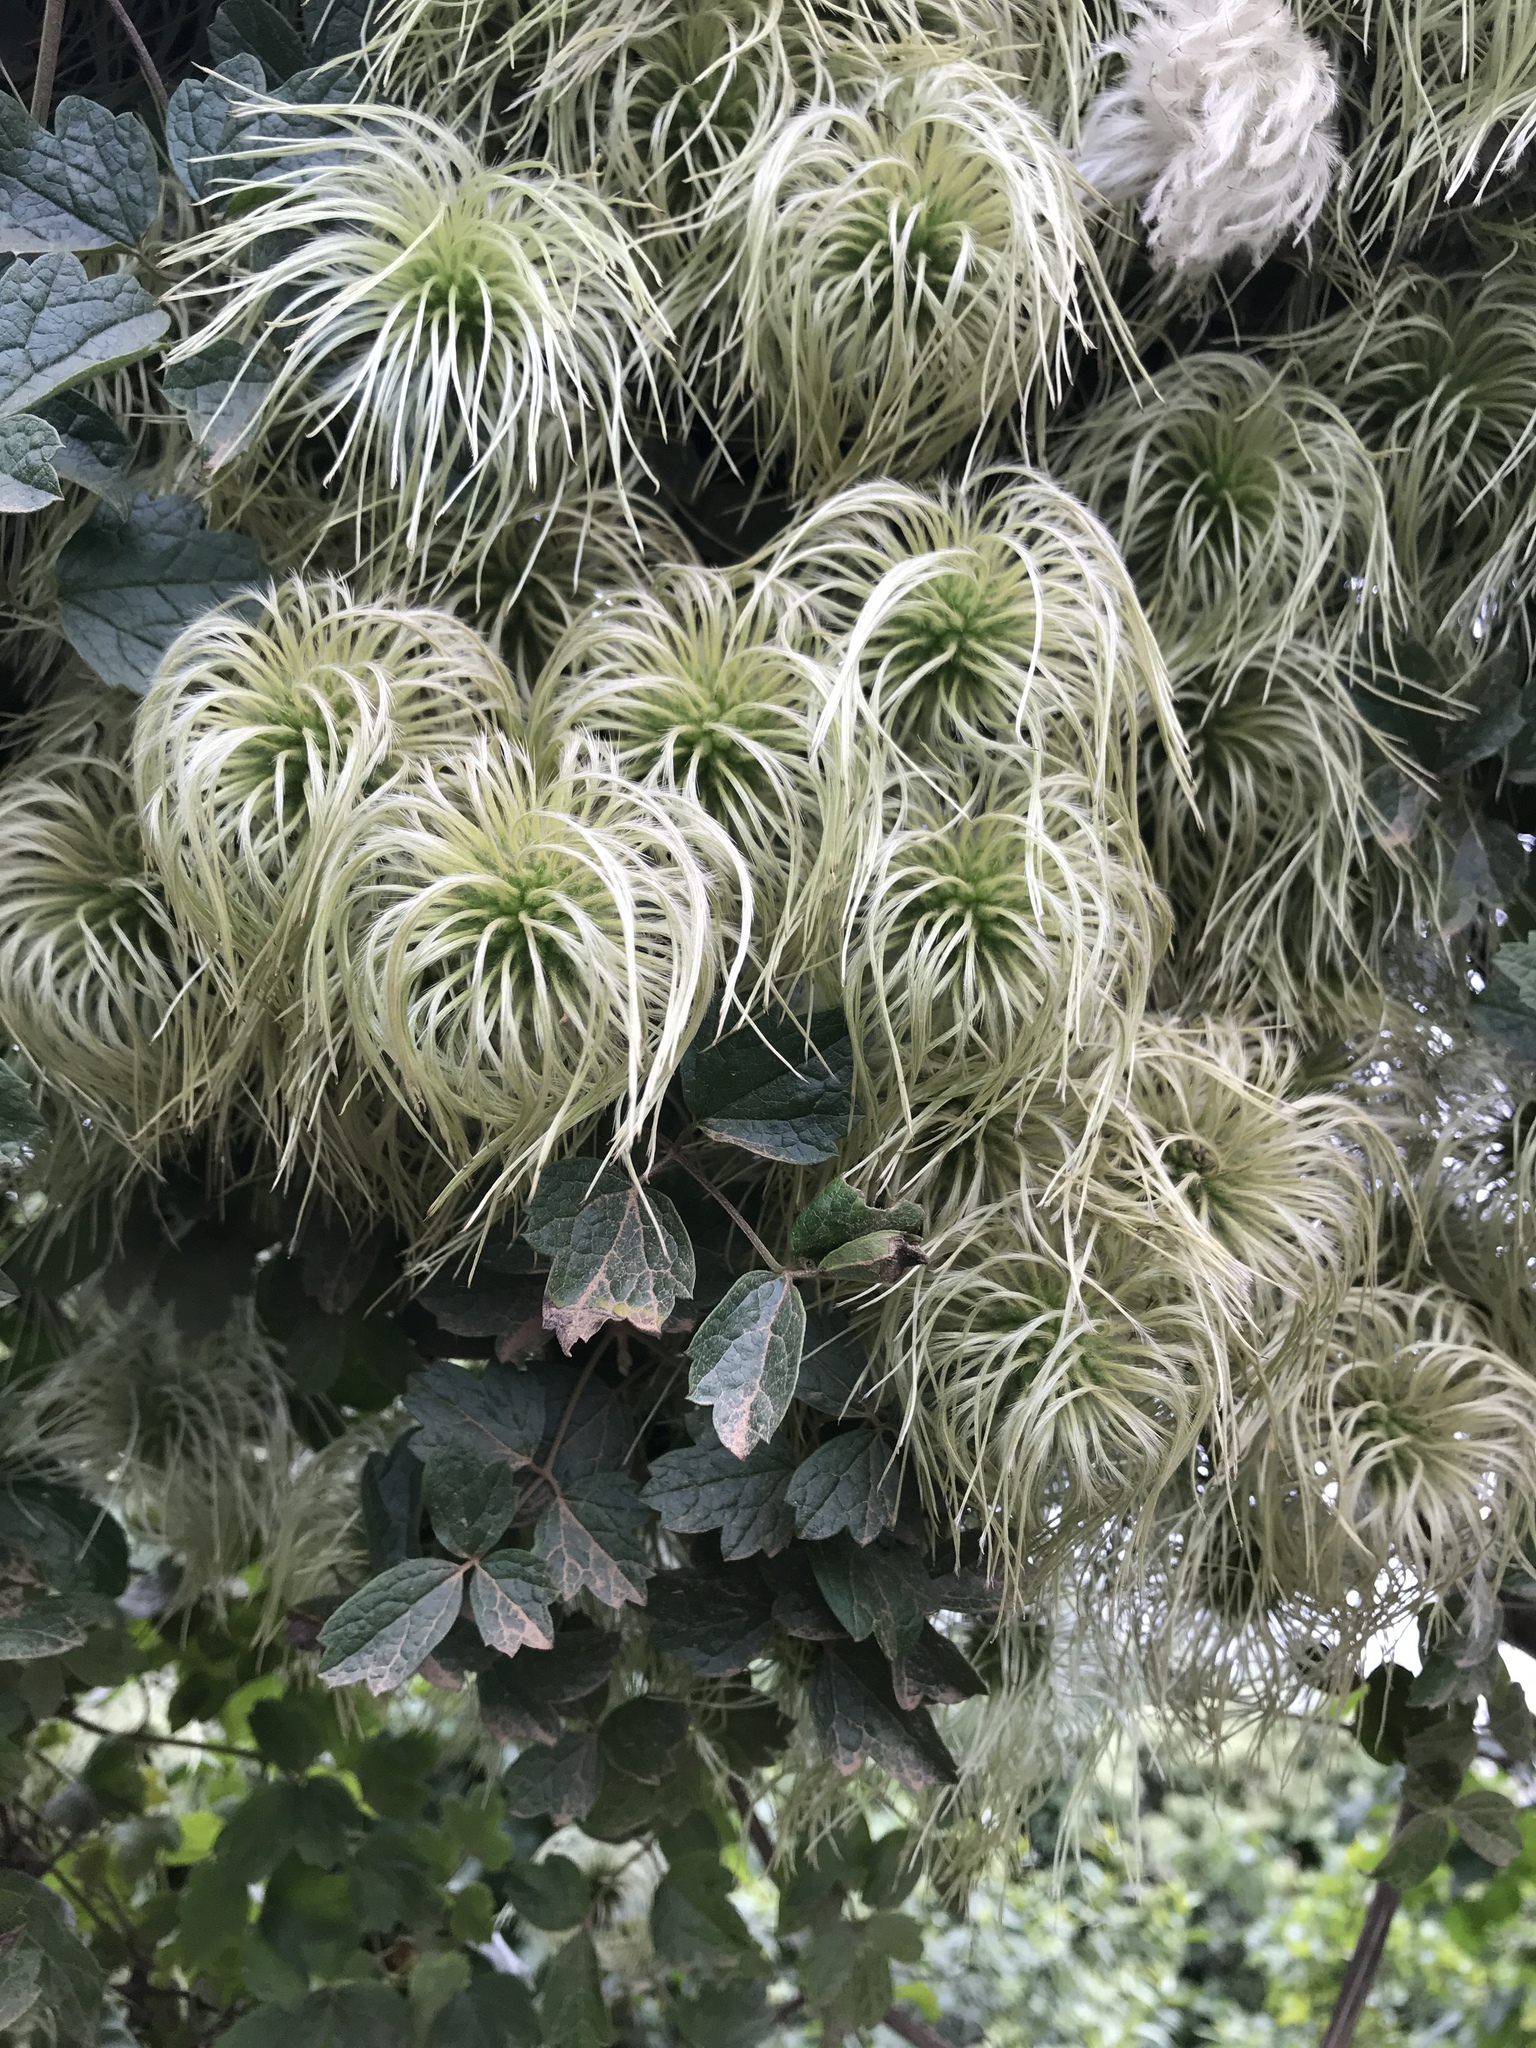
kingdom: Plantae
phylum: Tracheophyta
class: Magnoliopsida
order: Ranunculales
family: Ranunculaceae
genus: Clematis
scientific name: Clematis ligusticifolia
